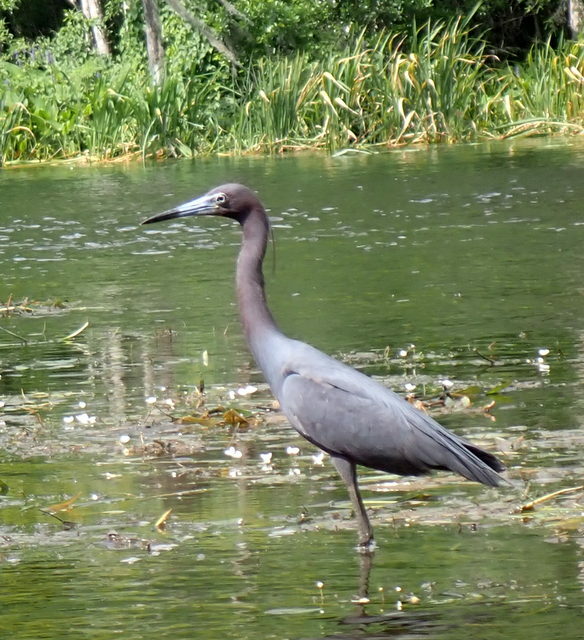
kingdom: Animalia
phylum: Chordata
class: Aves
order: Pelecaniformes
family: Ardeidae
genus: Egretta
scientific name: Egretta caerulea
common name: Little blue heron
